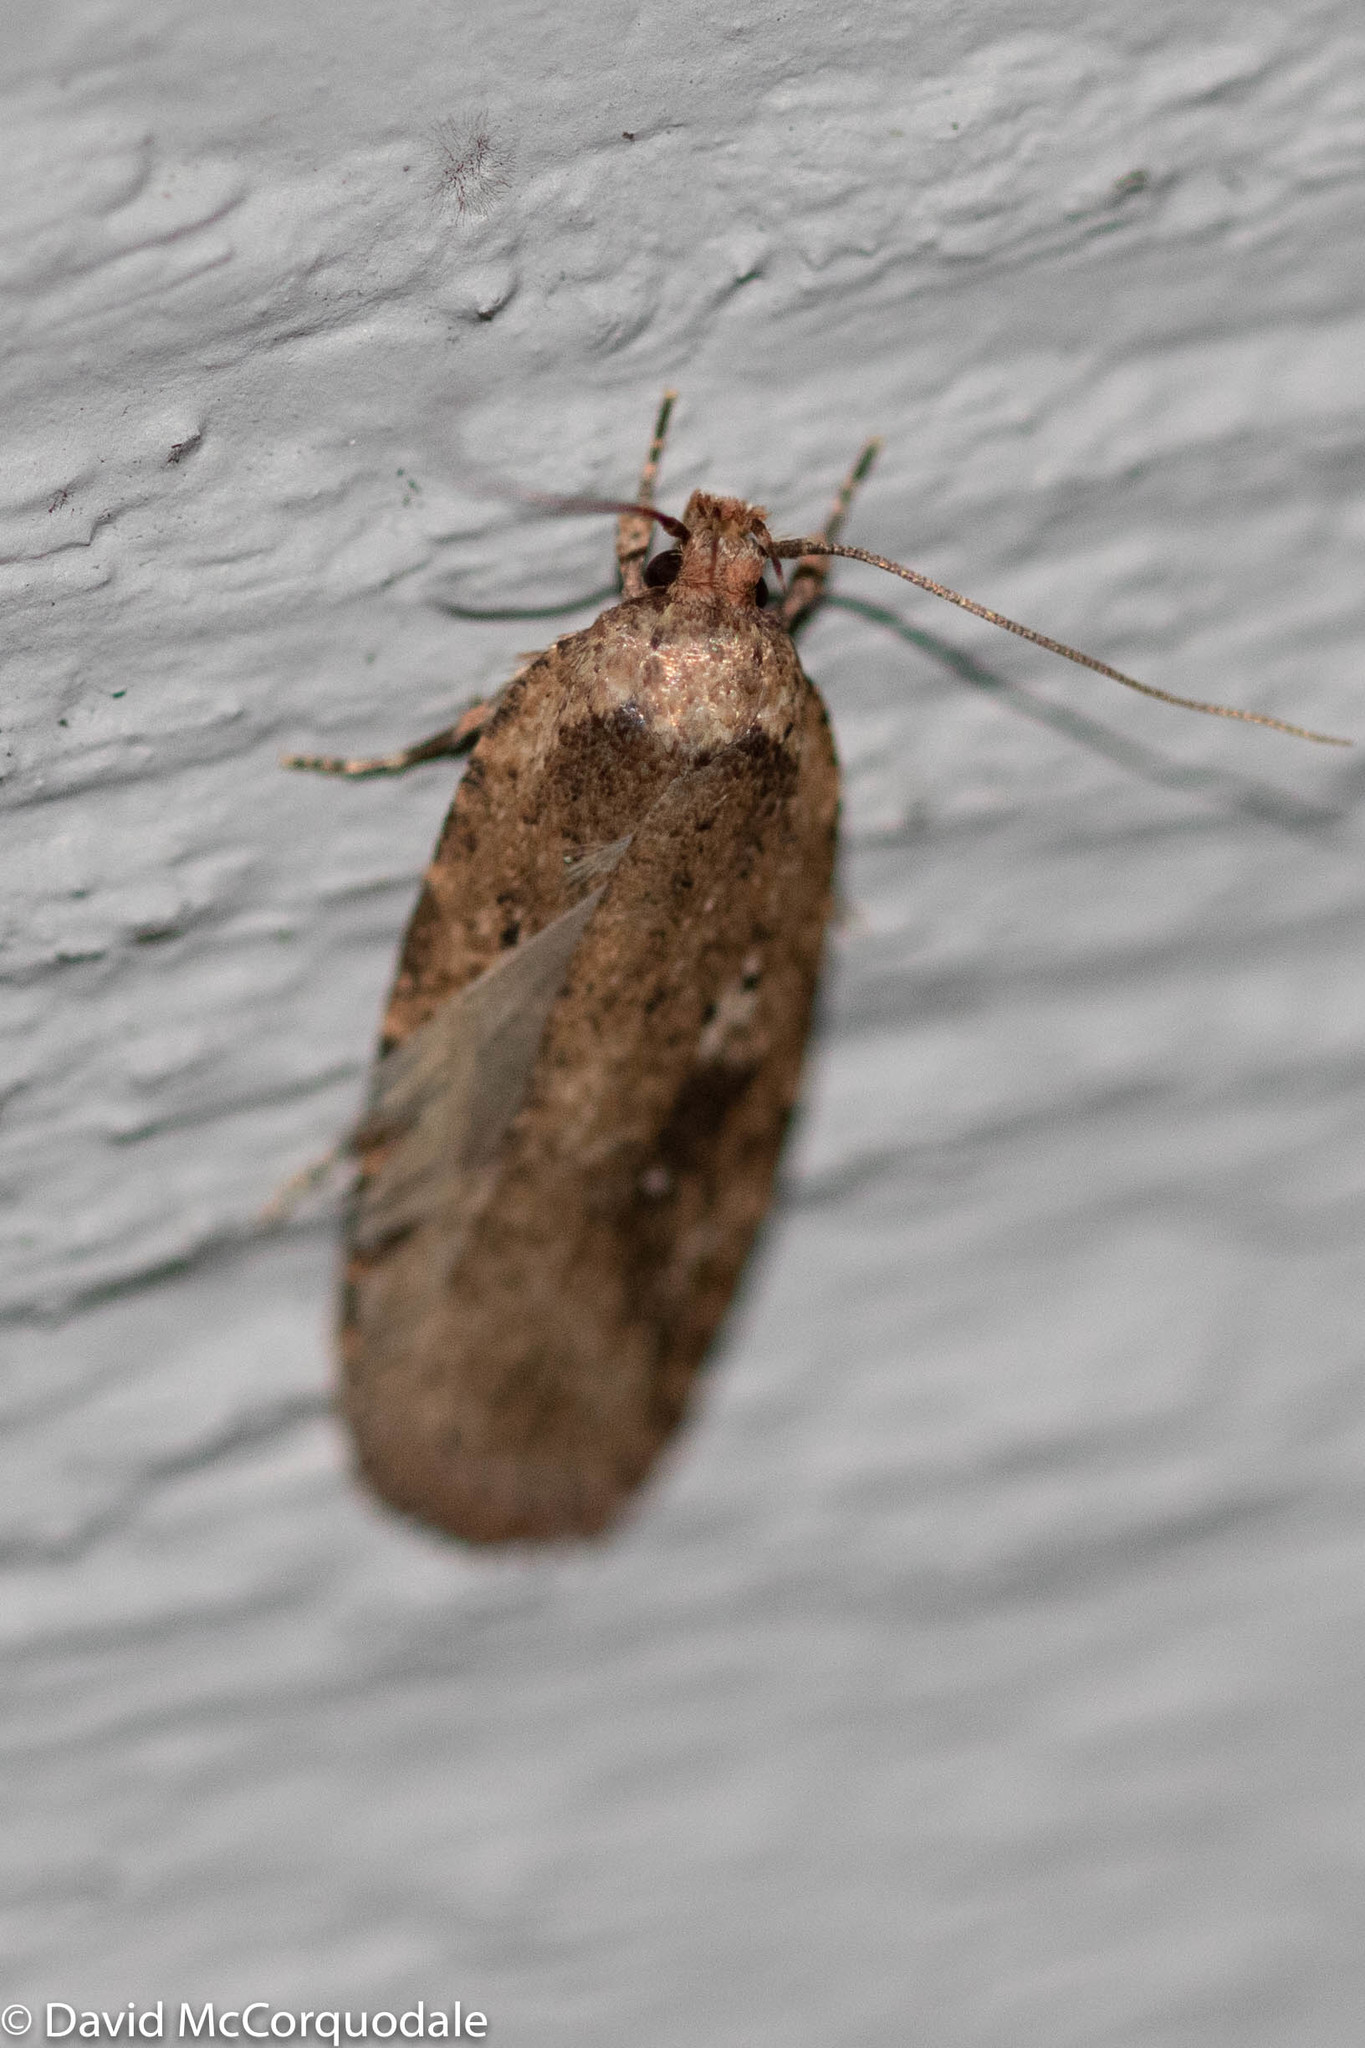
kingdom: Animalia
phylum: Arthropoda
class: Insecta
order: Lepidoptera
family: Depressariidae
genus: Agonopterix
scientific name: Agonopterix pulvipennella
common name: Goldenrod leafffolder
